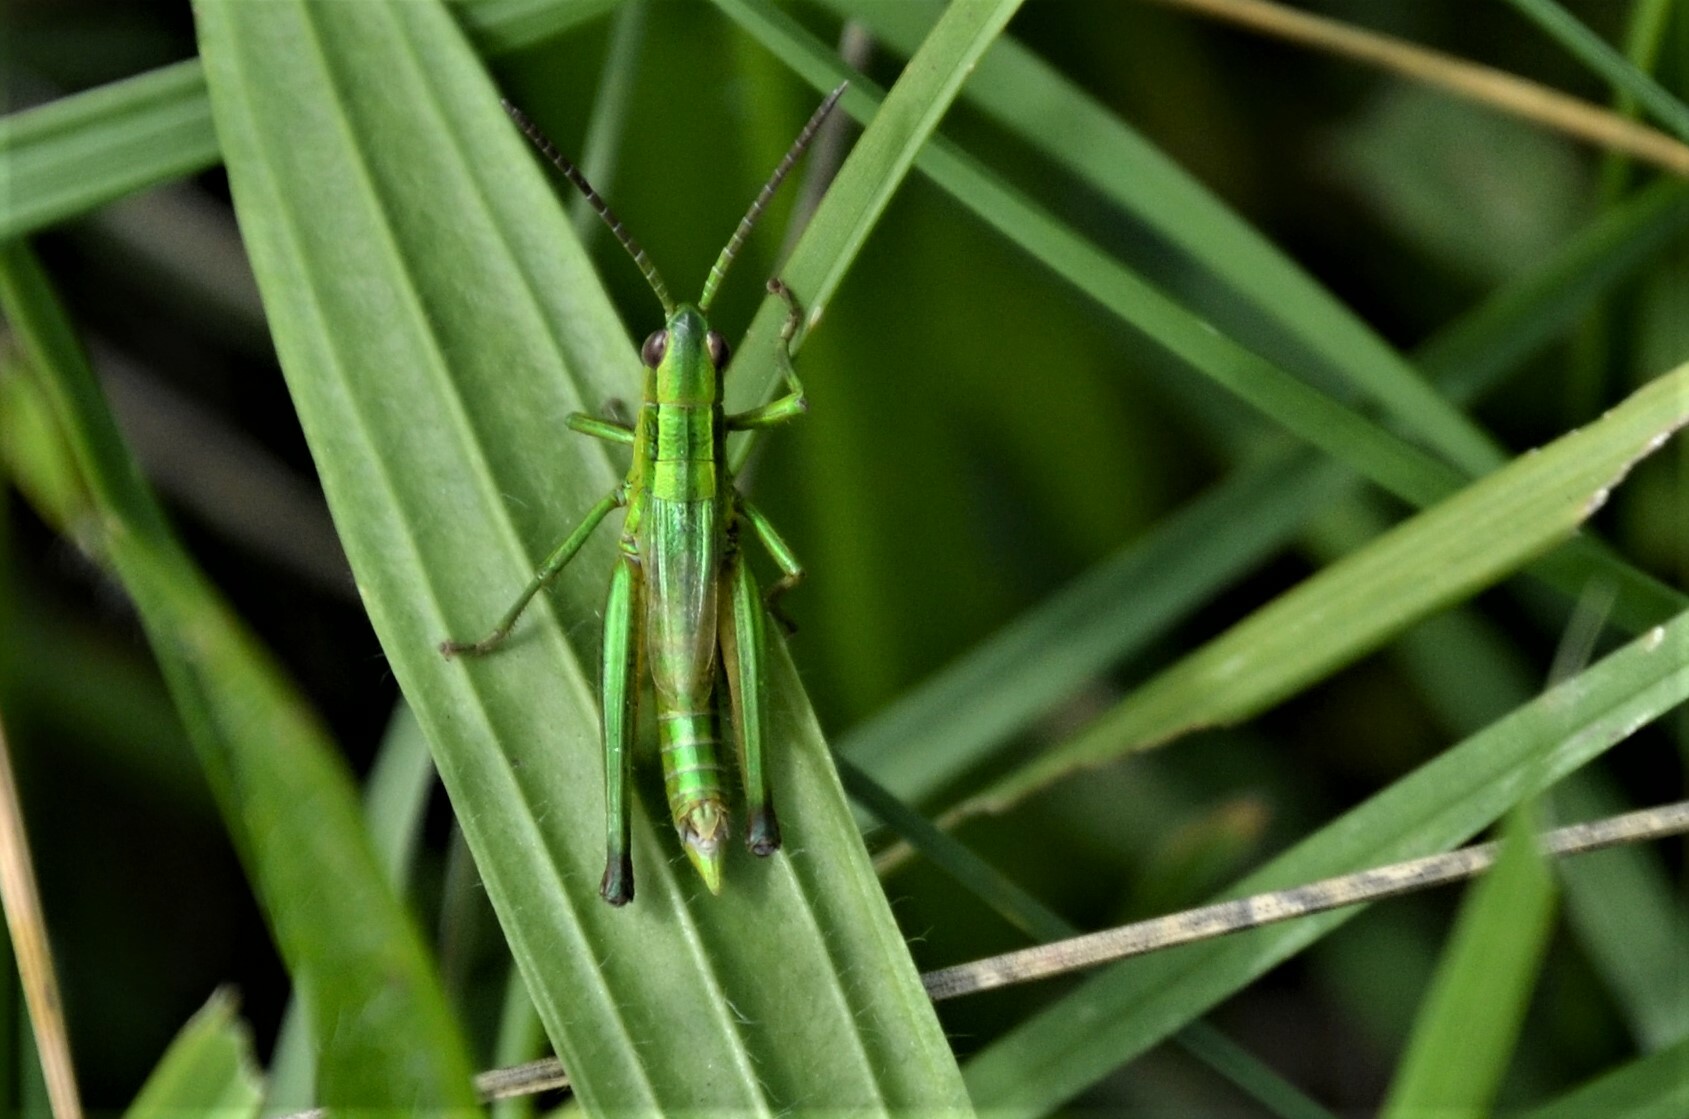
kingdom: Animalia
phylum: Arthropoda
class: Insecta
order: Orthoptera
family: Acrididae
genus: Euthystira
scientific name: Euthystira brachyptera
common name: Small gold grasshopper
